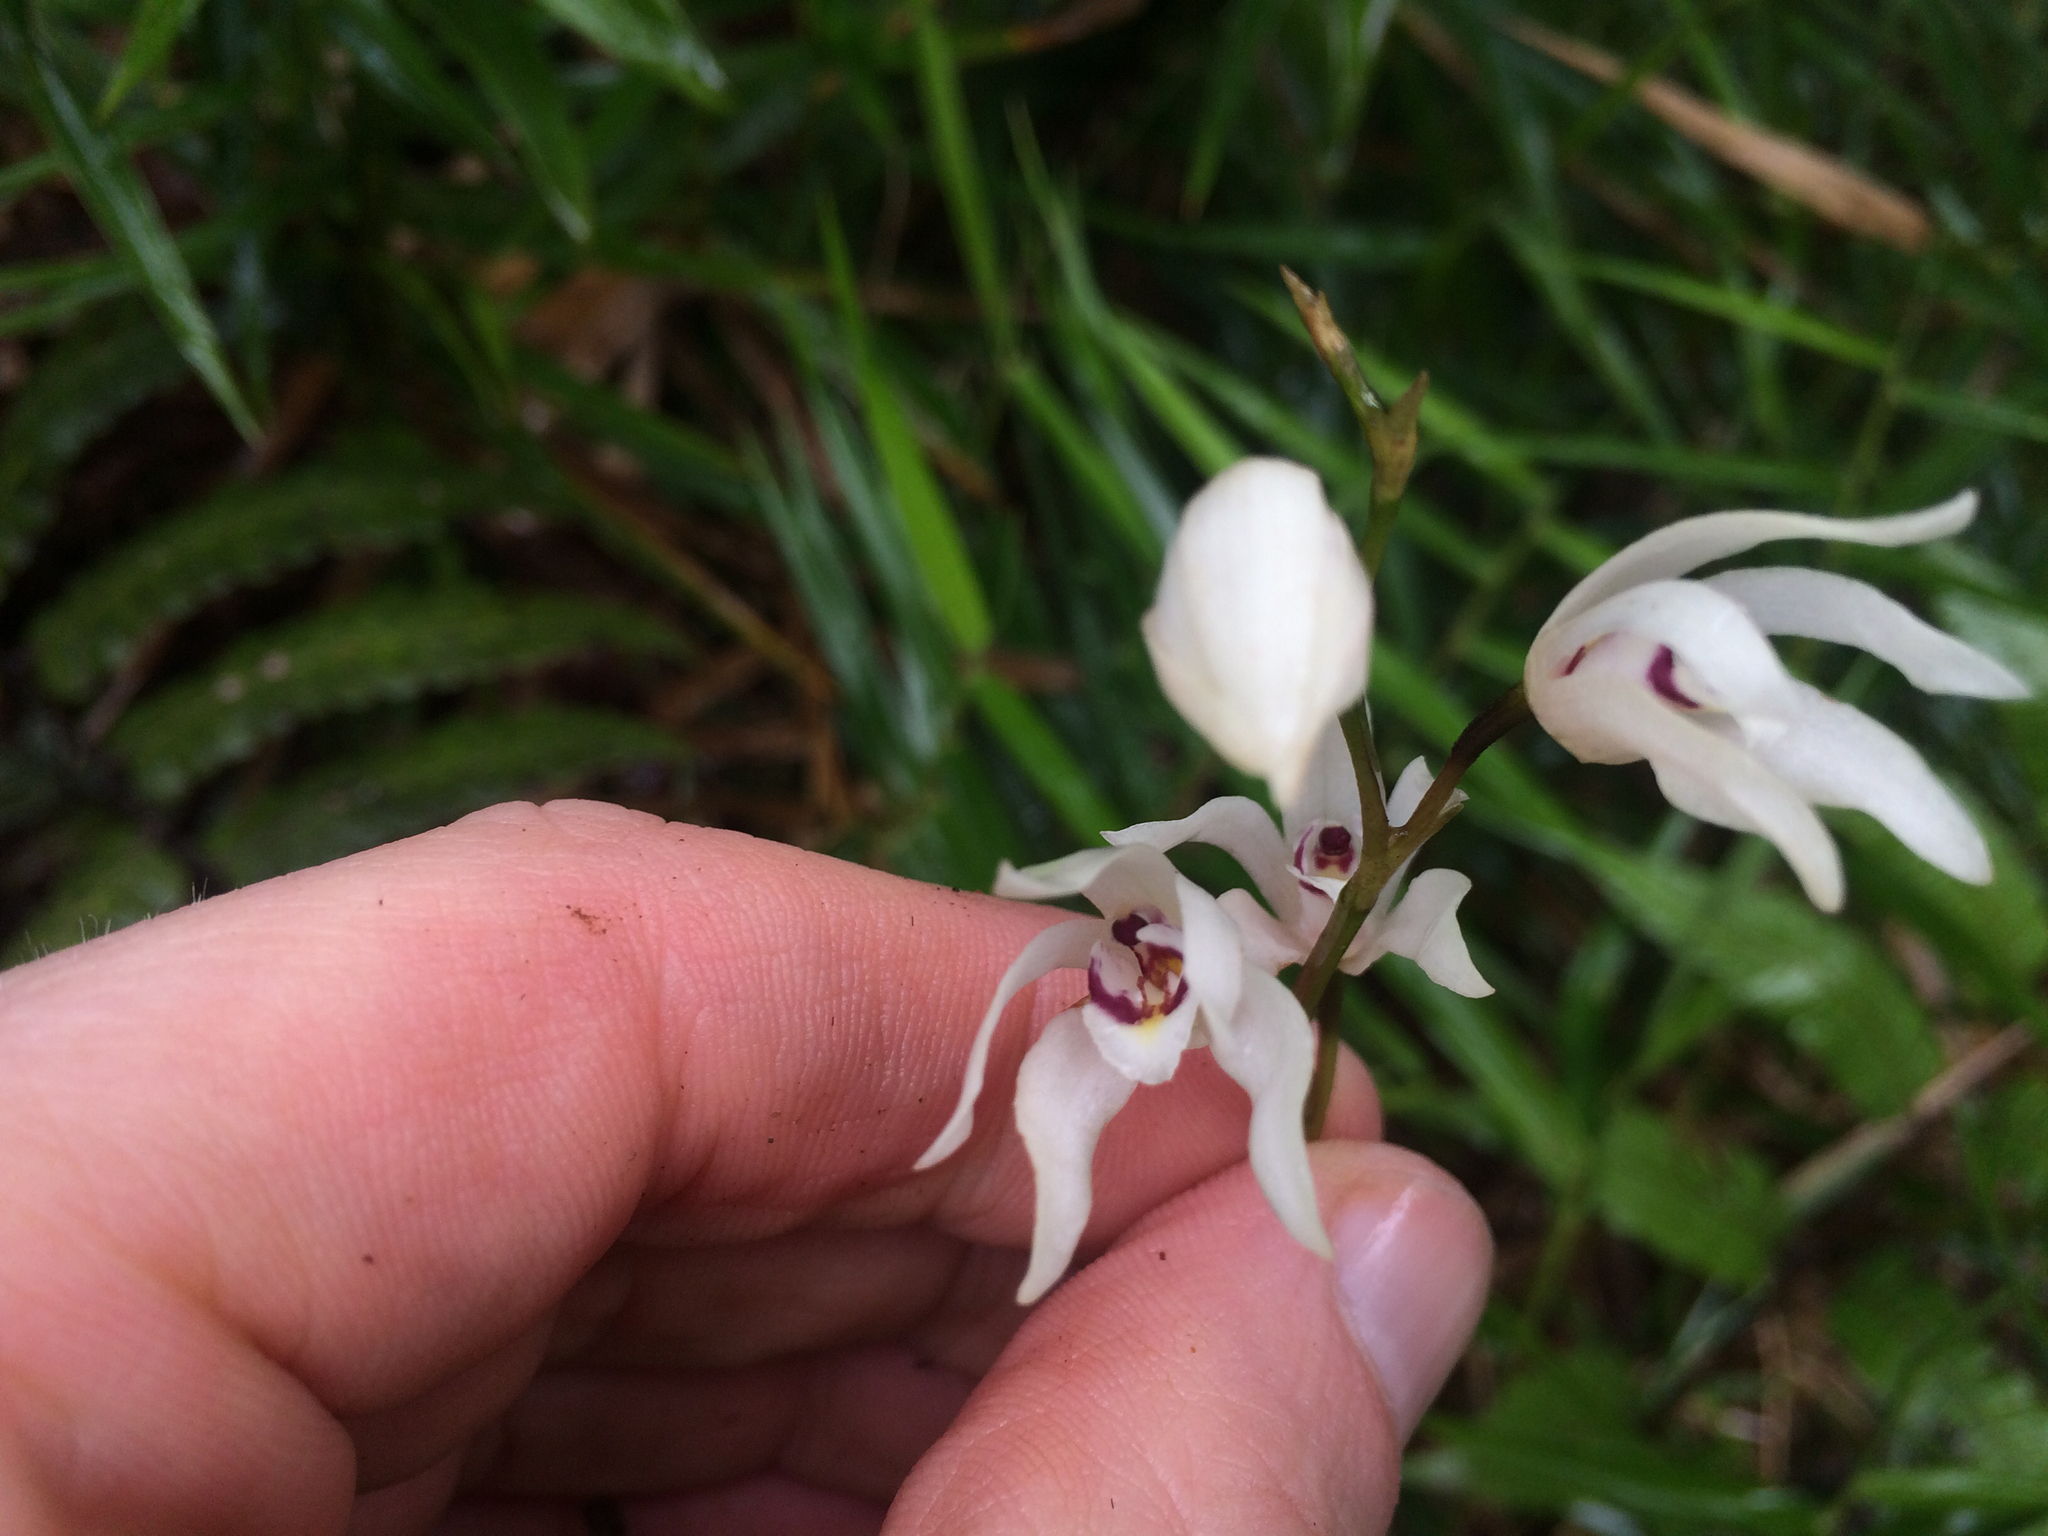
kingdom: Plantae
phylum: Tracheophyta
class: Liliopsida
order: Asparagales
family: Orchidaceae
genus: Dilomilis
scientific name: Dilomilis montana
